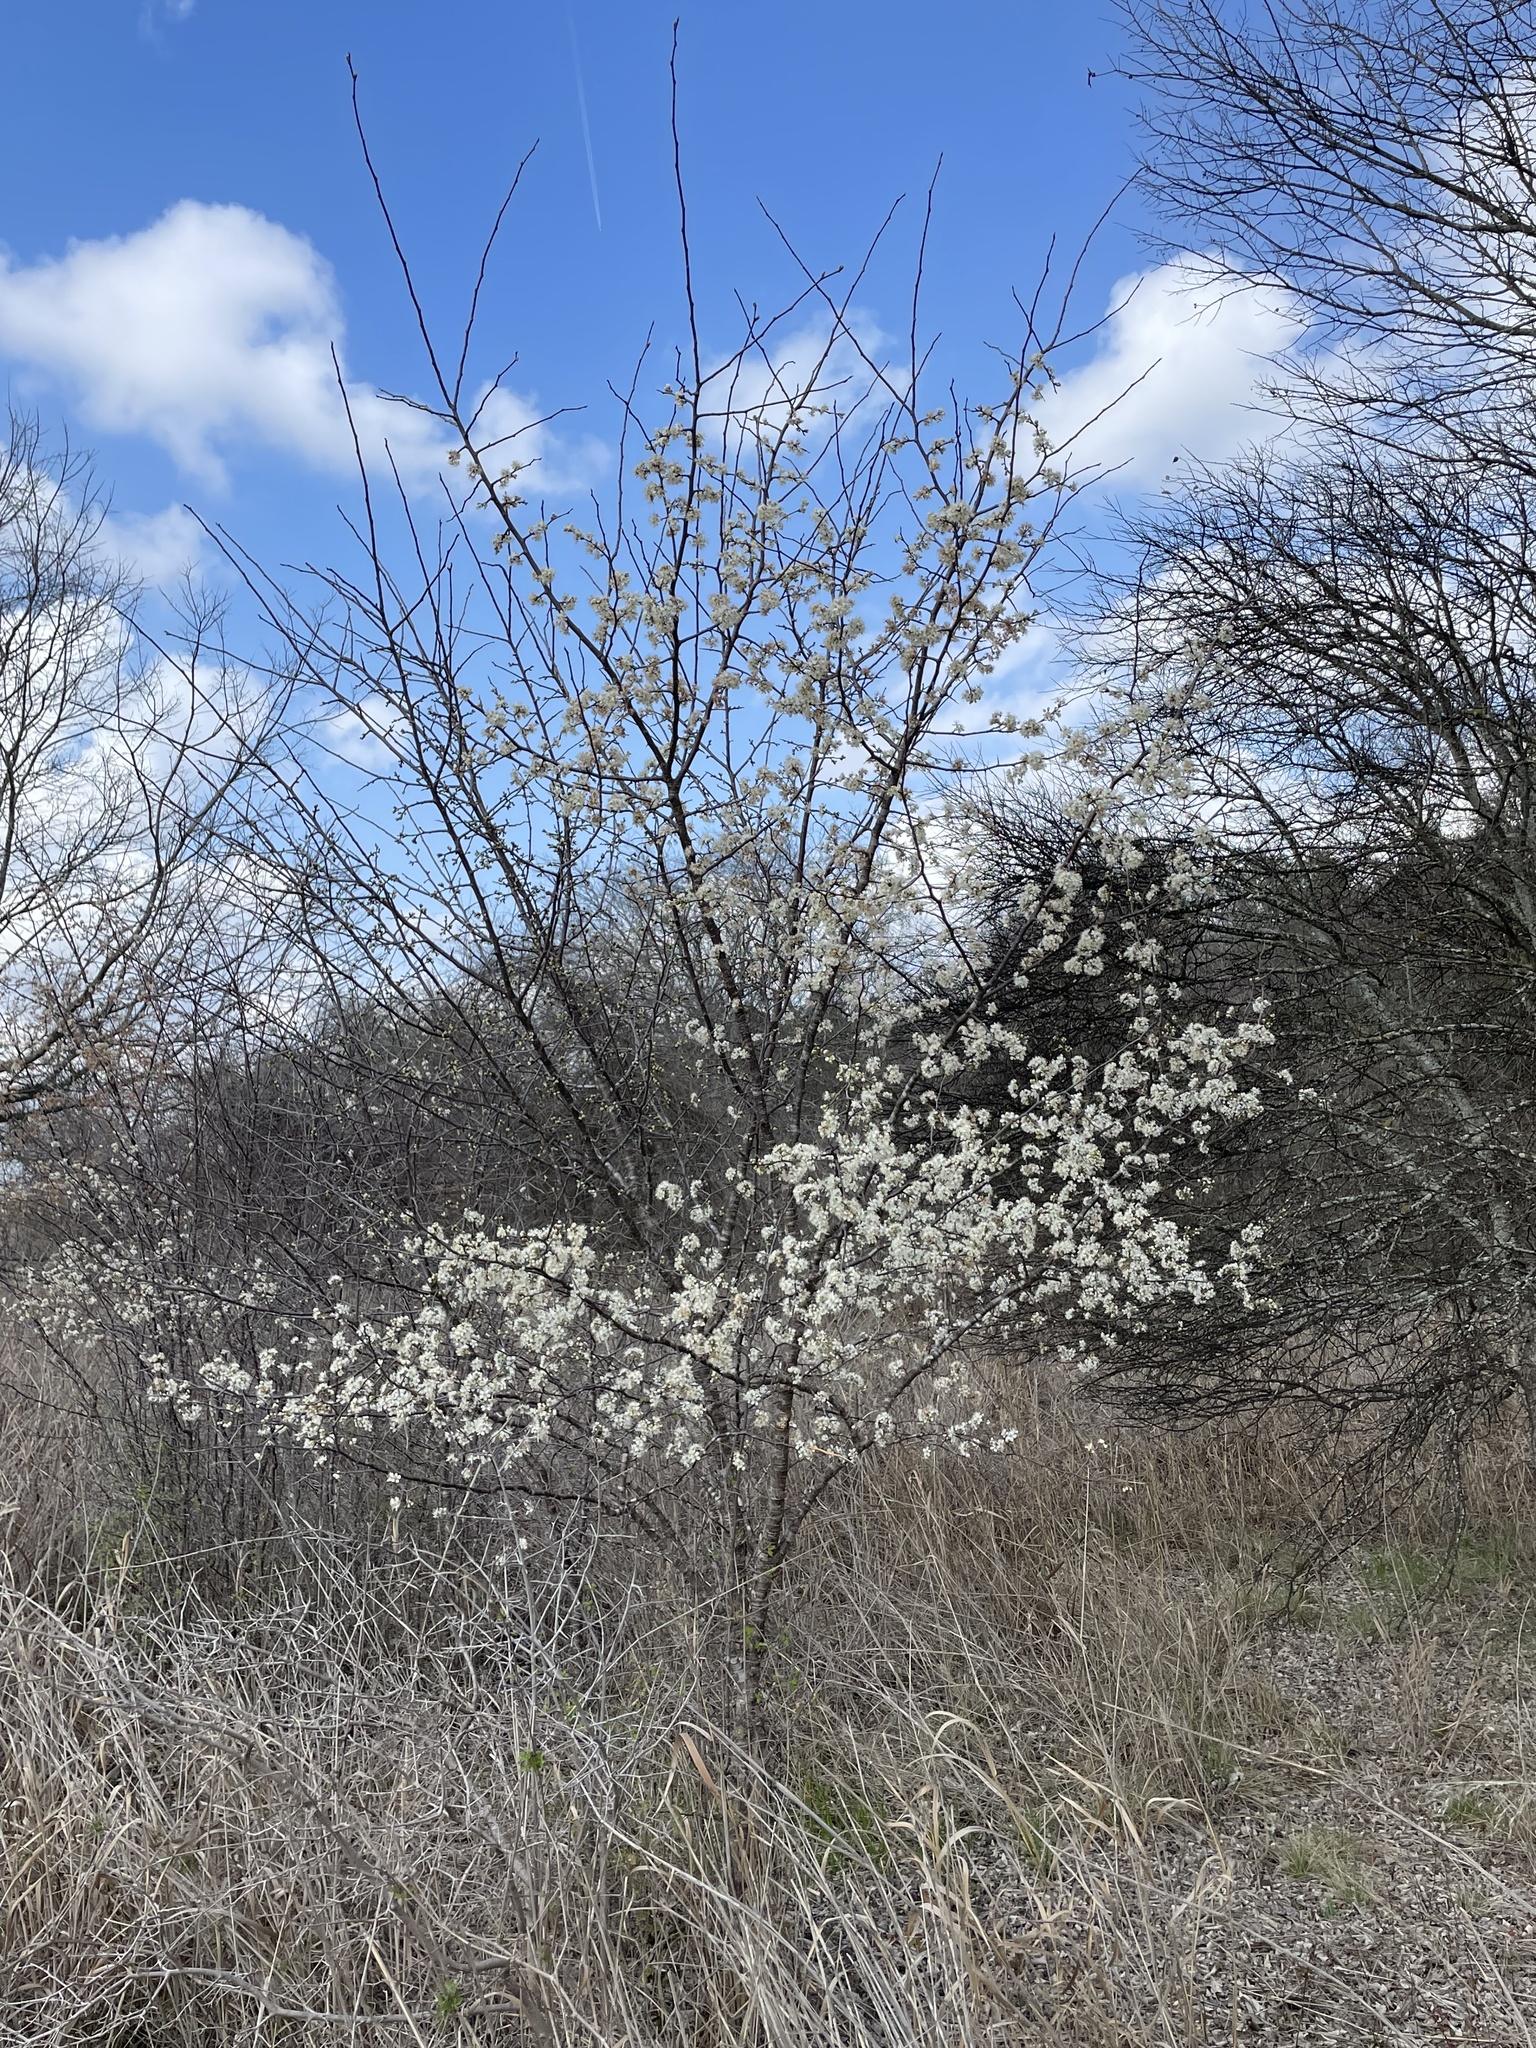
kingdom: Plantae
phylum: Tracheophyta
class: Magnoliopsida
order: Rosales
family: Rosaceae
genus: Prunus
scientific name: Prunus mexicana
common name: Mexican plum
